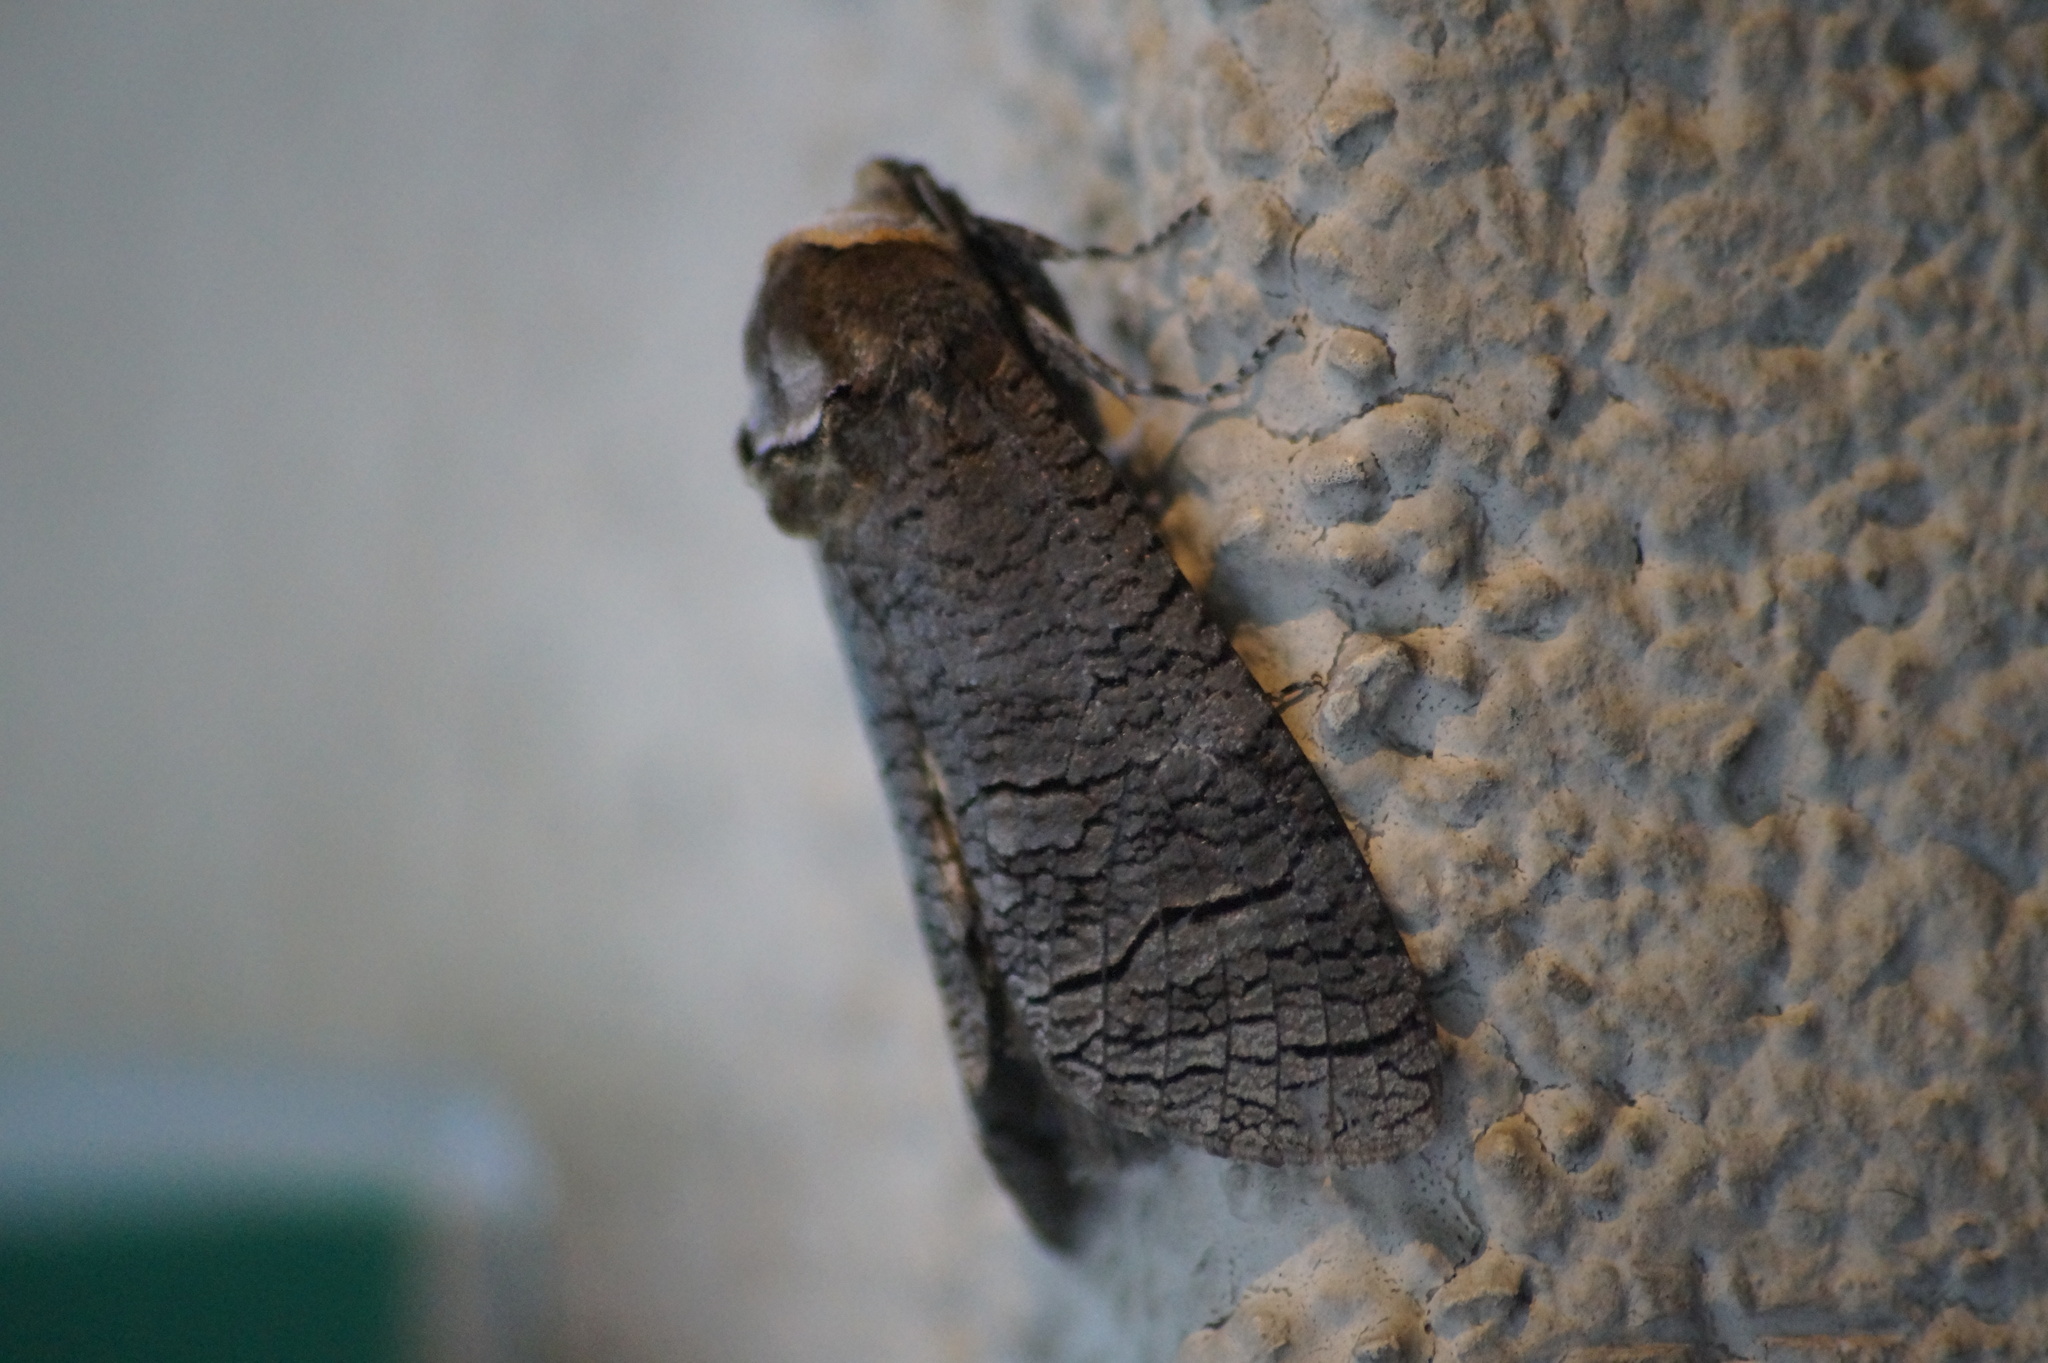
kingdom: Animalia
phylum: Arthropoda
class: Insecta
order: Lepidoptera
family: Cossidae
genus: Cossus
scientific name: Cossus cossus
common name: Goat moth
